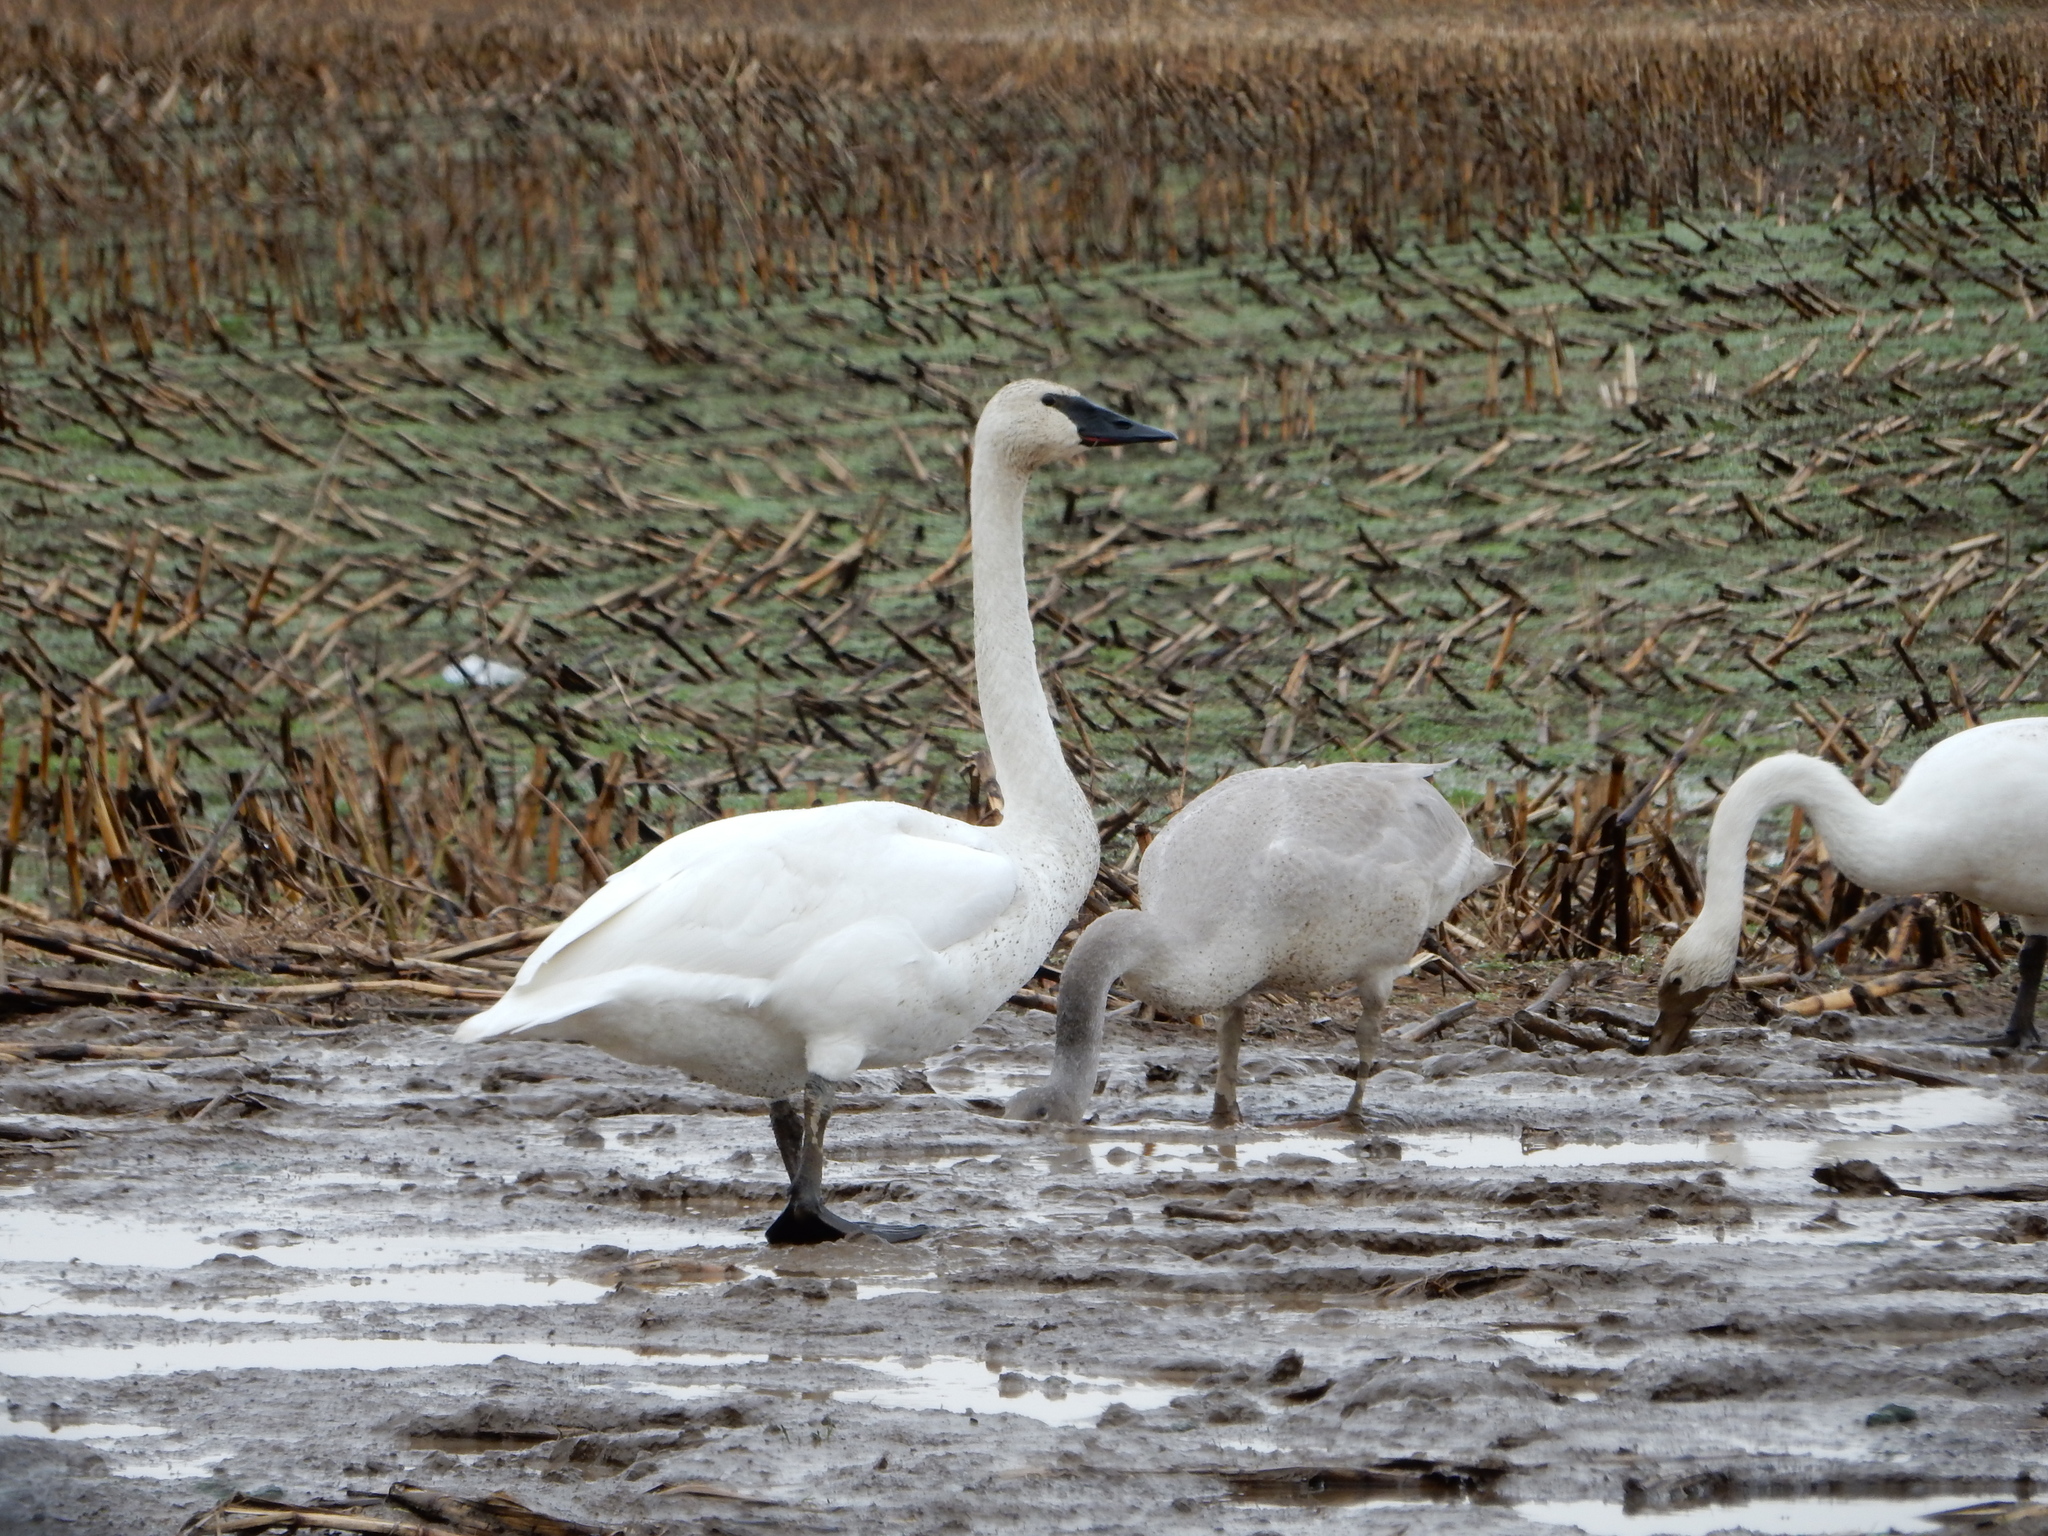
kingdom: Animalia
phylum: Chordata
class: Aves
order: Anseriformes
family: Anatidae
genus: Cygnus
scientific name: Cygnus buccinator
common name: Trumpeter swan
